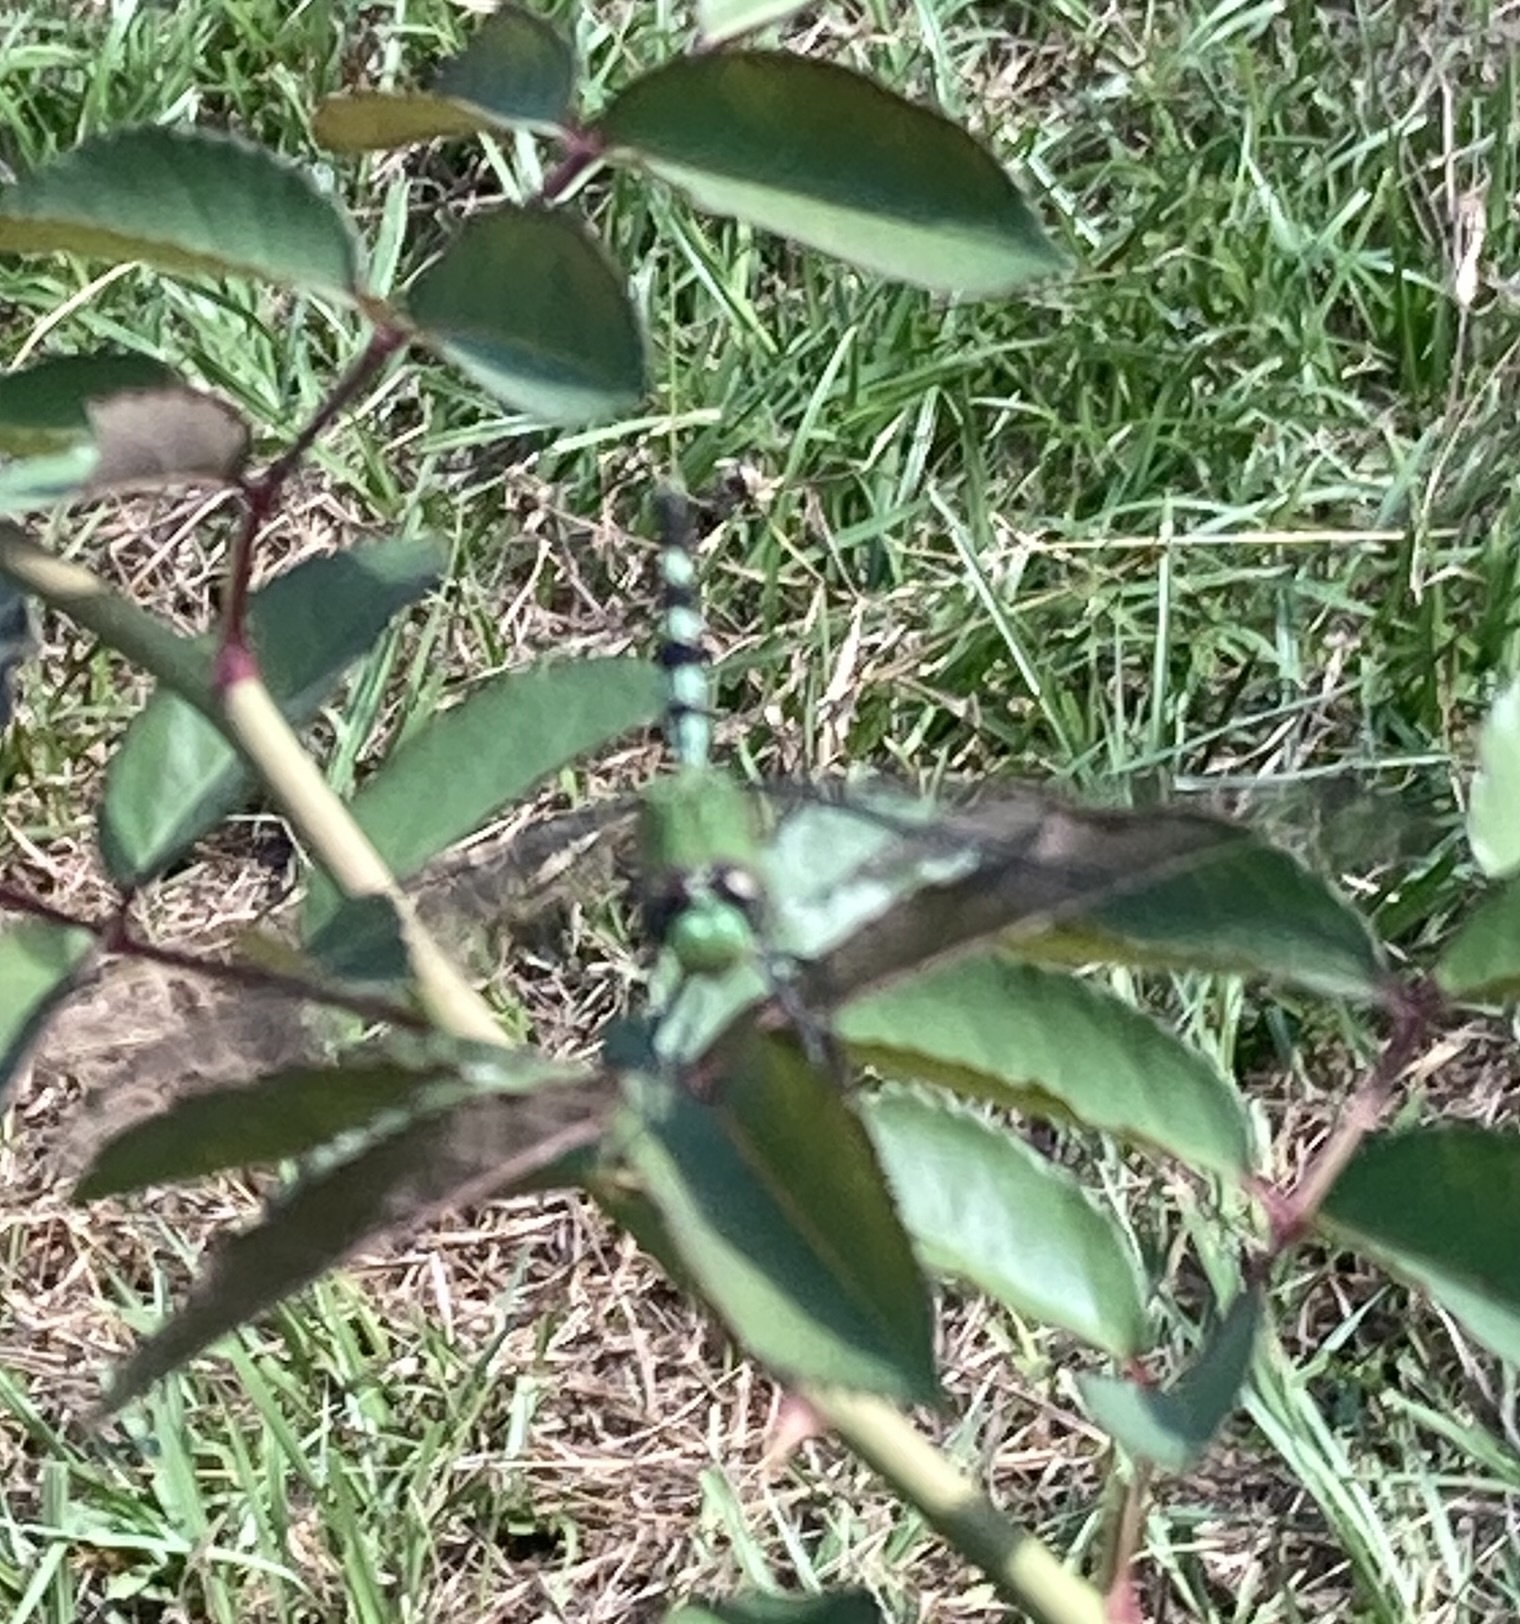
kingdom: Animalia
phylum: Arthropoda
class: Insecta
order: Odonata
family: Libellulidae
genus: Erythemis
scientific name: Erythemis vesiculosa
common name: Great pondhawk
